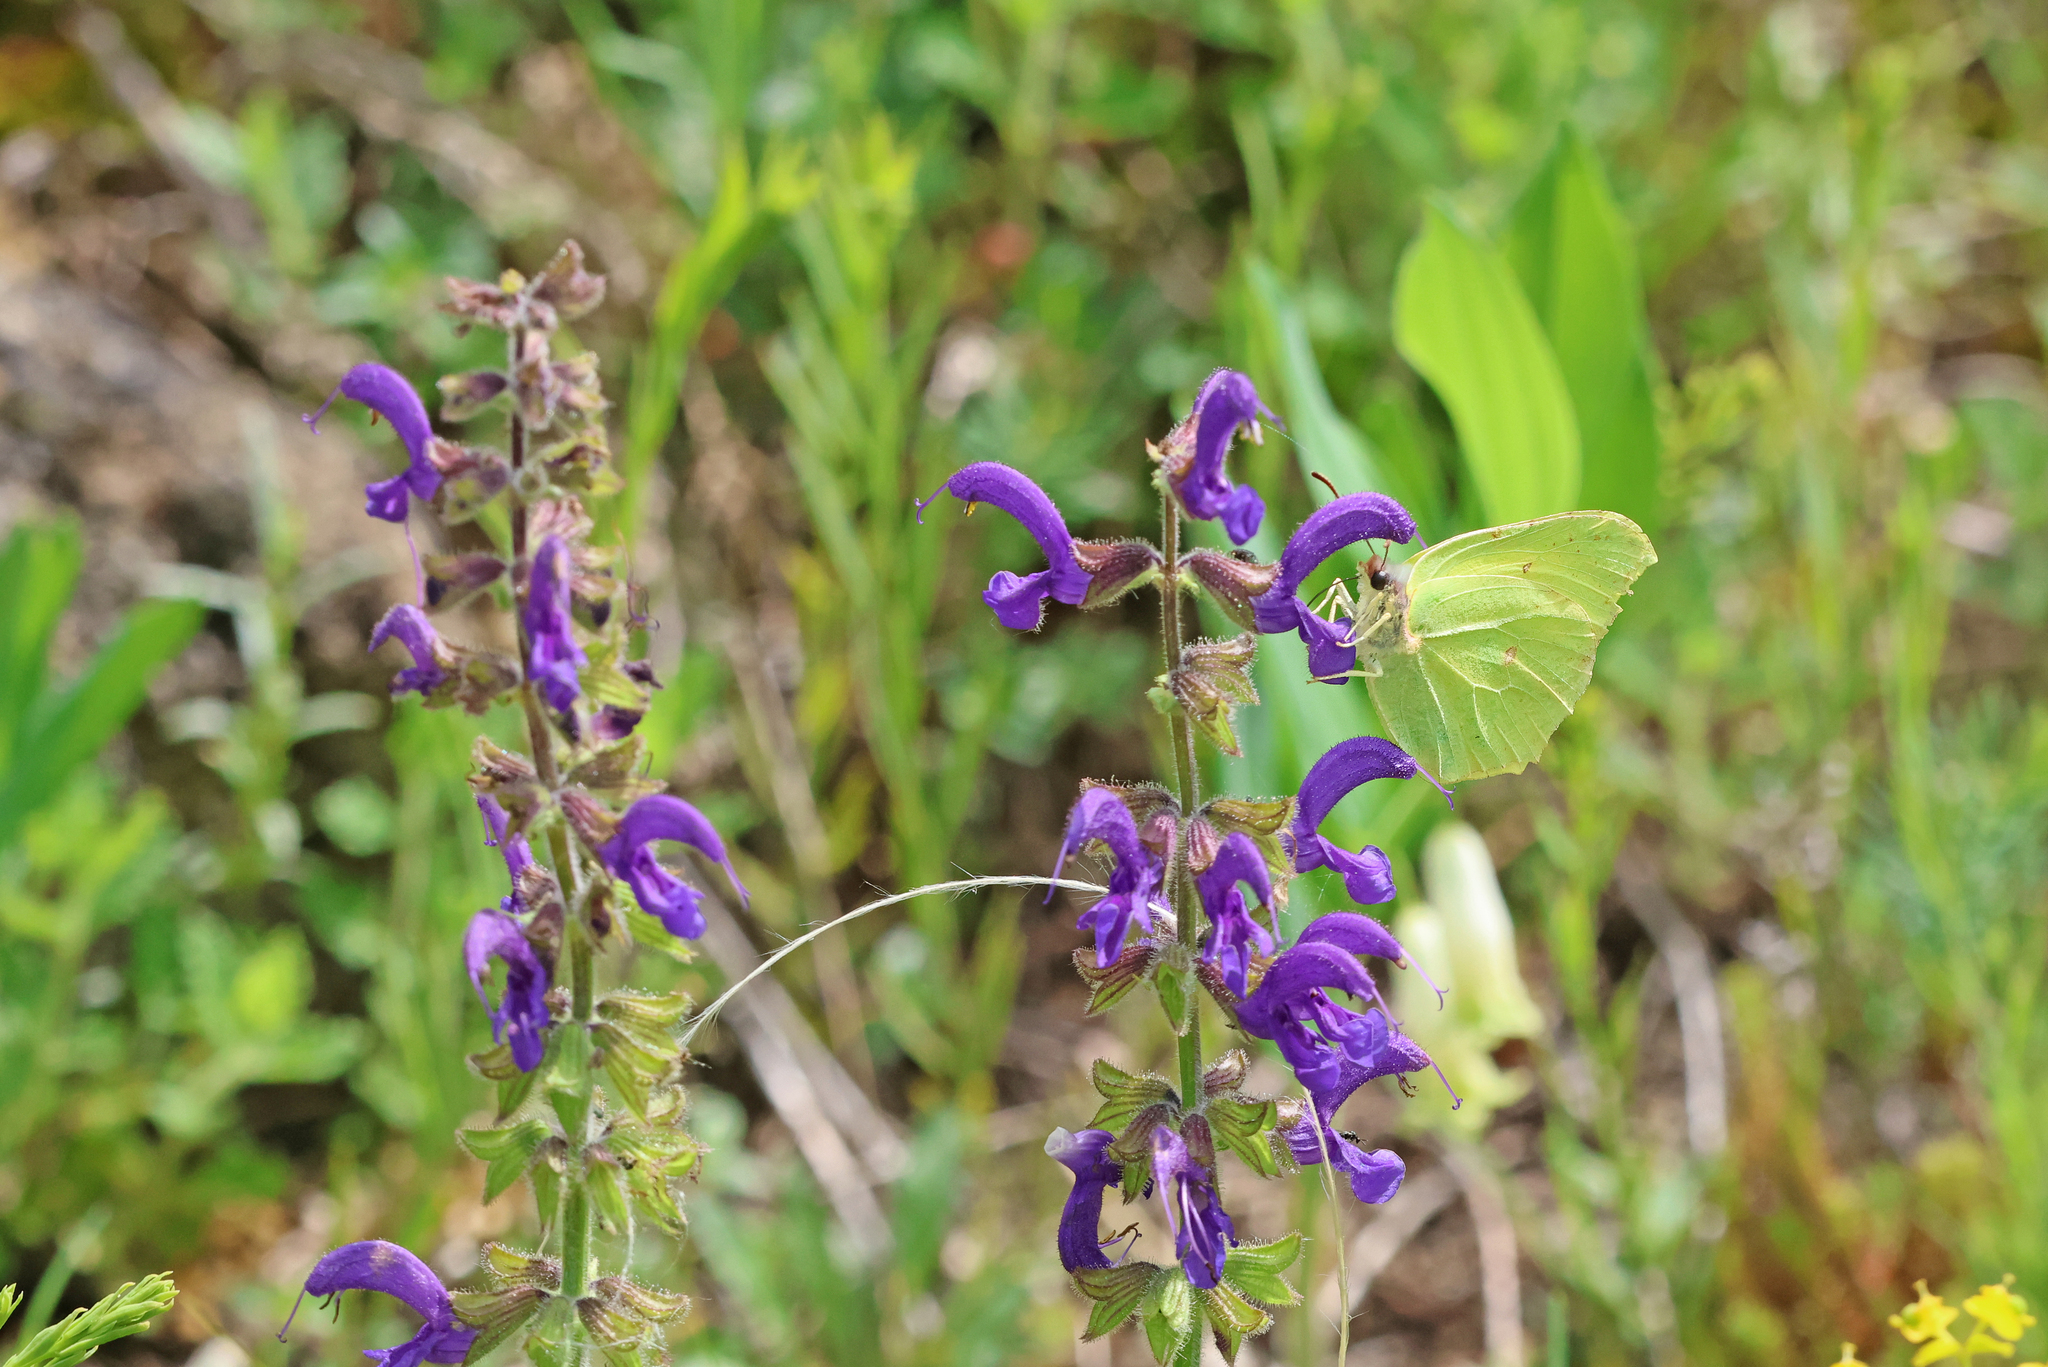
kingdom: Animalia
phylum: Arthropoda
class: Insecta
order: Lepidoptera
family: Pieridae
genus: Gonepteryx
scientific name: Gonepteryx rhamni
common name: Brimstone
